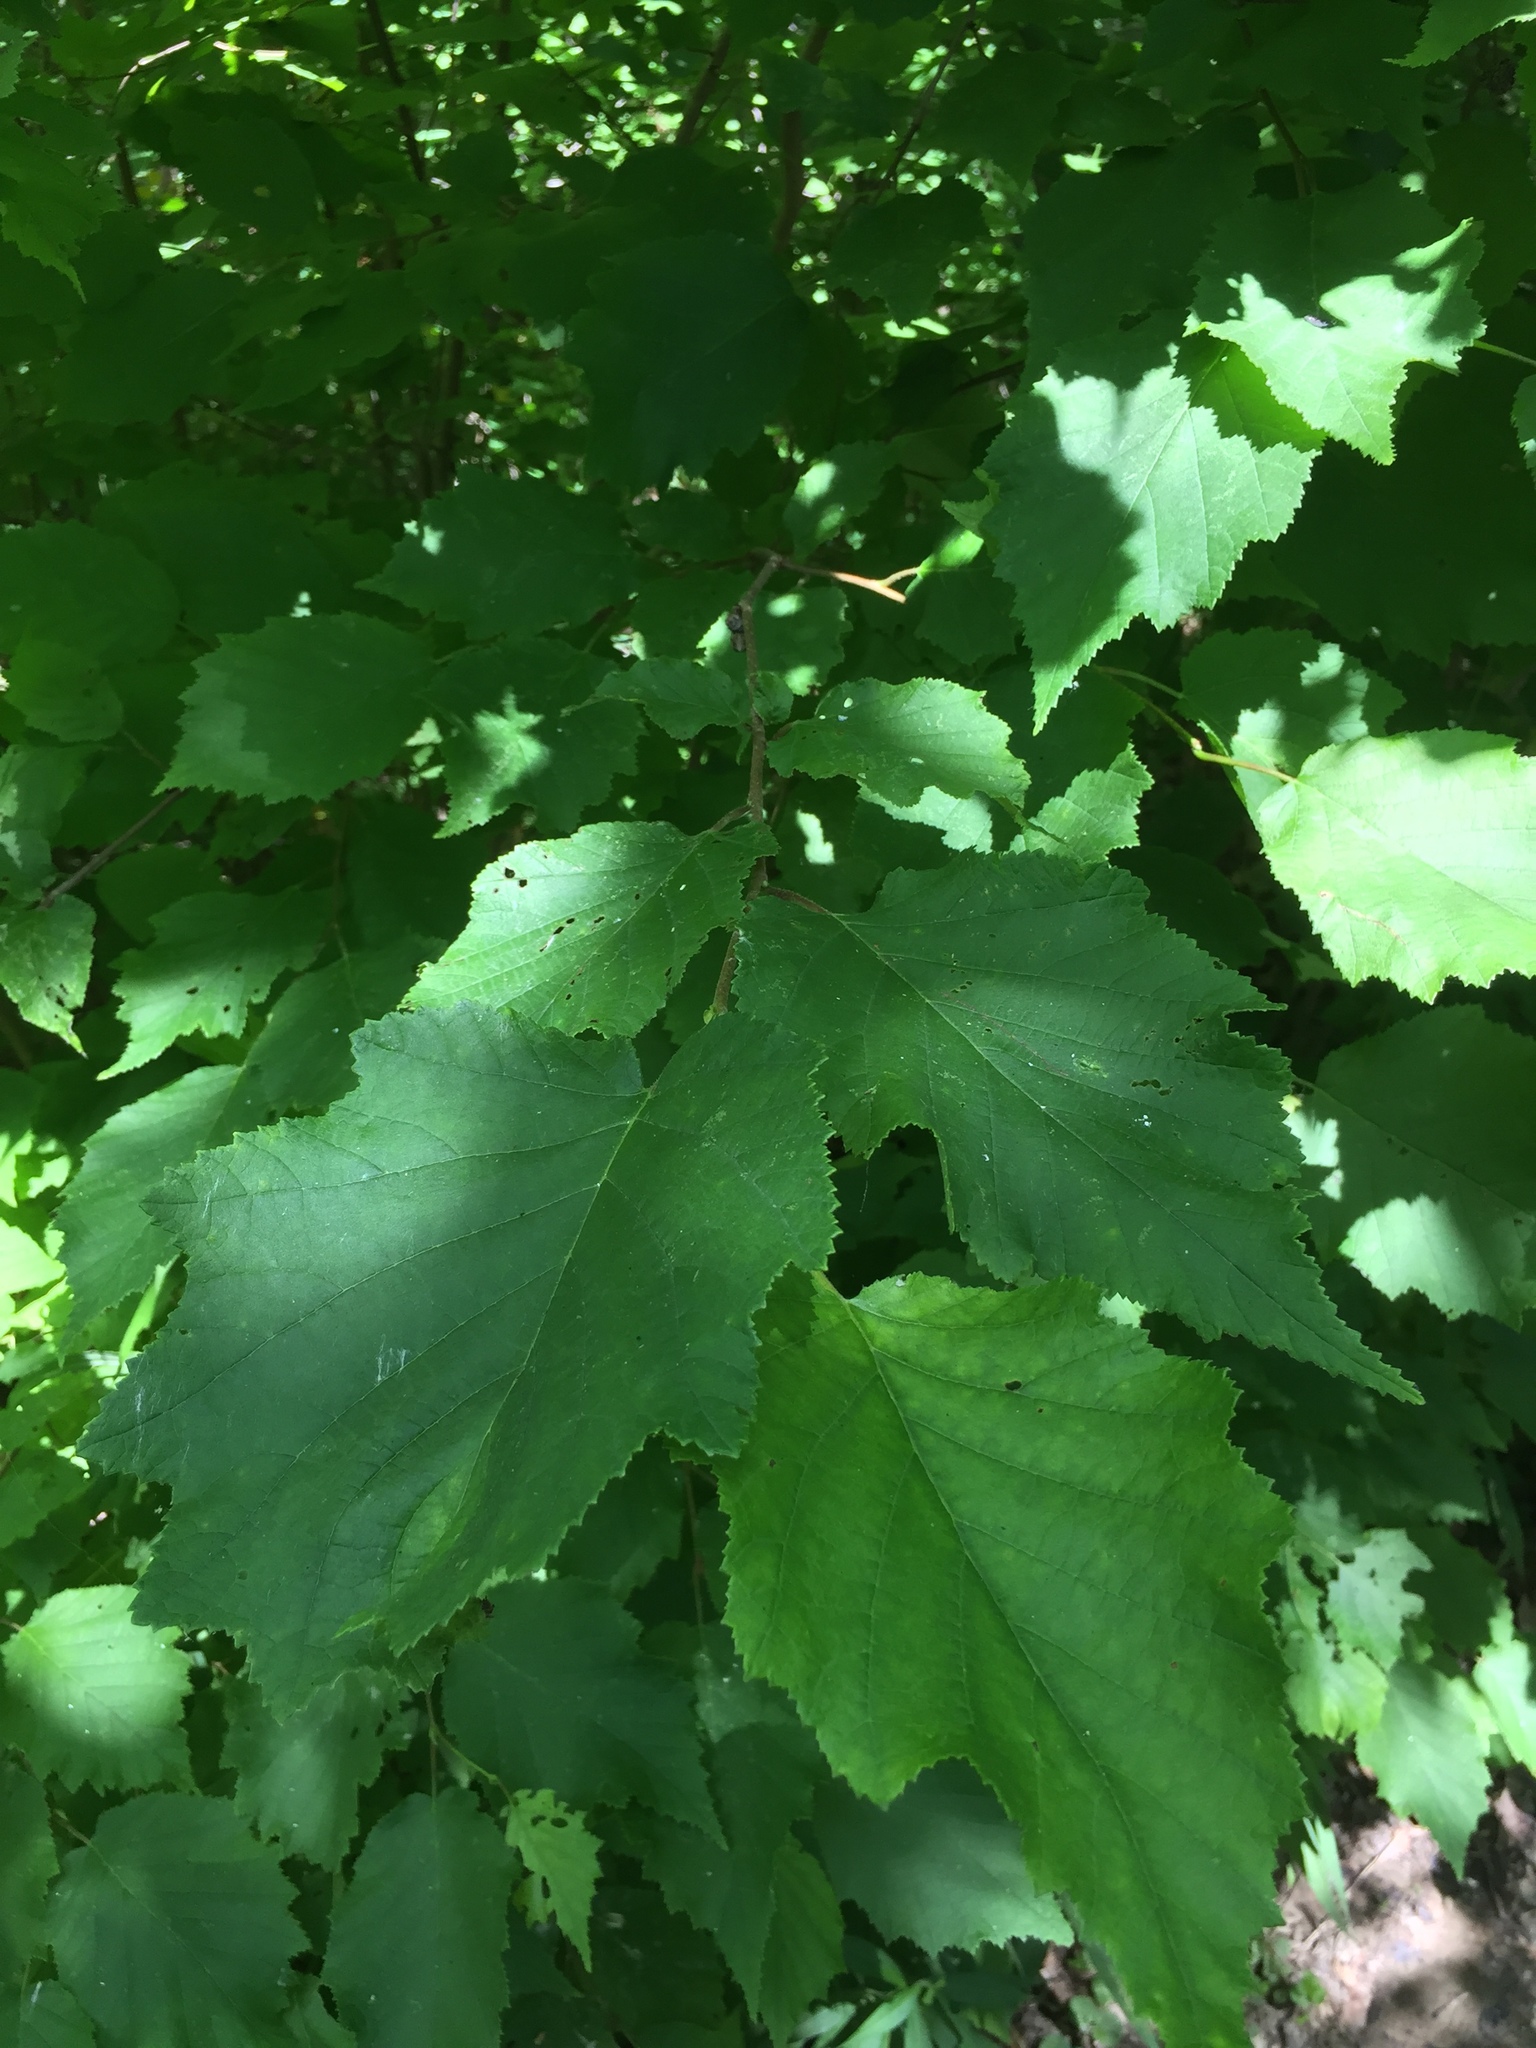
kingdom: Plantae
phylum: Tracheophyta
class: Magnoliopsida
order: Fagales
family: Betulaceae
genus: Corylus
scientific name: Corylus americana
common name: American hazel
